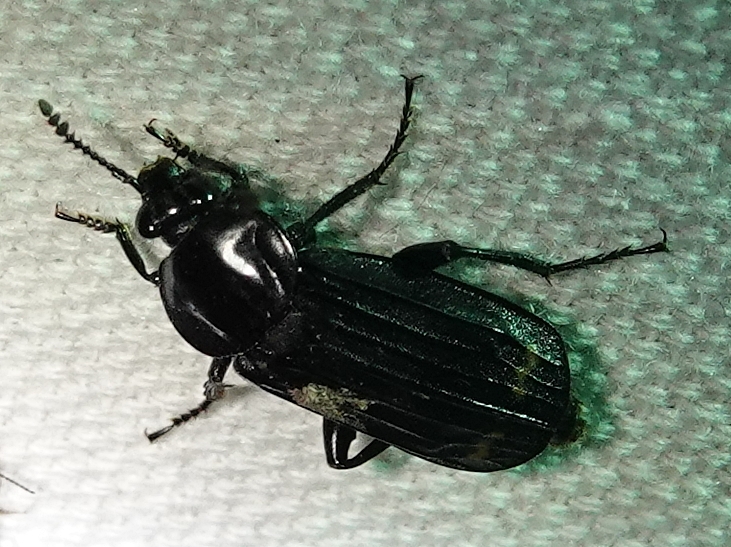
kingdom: Animalia
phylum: Arthropoda
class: Insecta
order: Coleoptera
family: Staphylinidae
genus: Necrodes
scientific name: Necrodes surinamensis
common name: Red-lined carrion beetle
